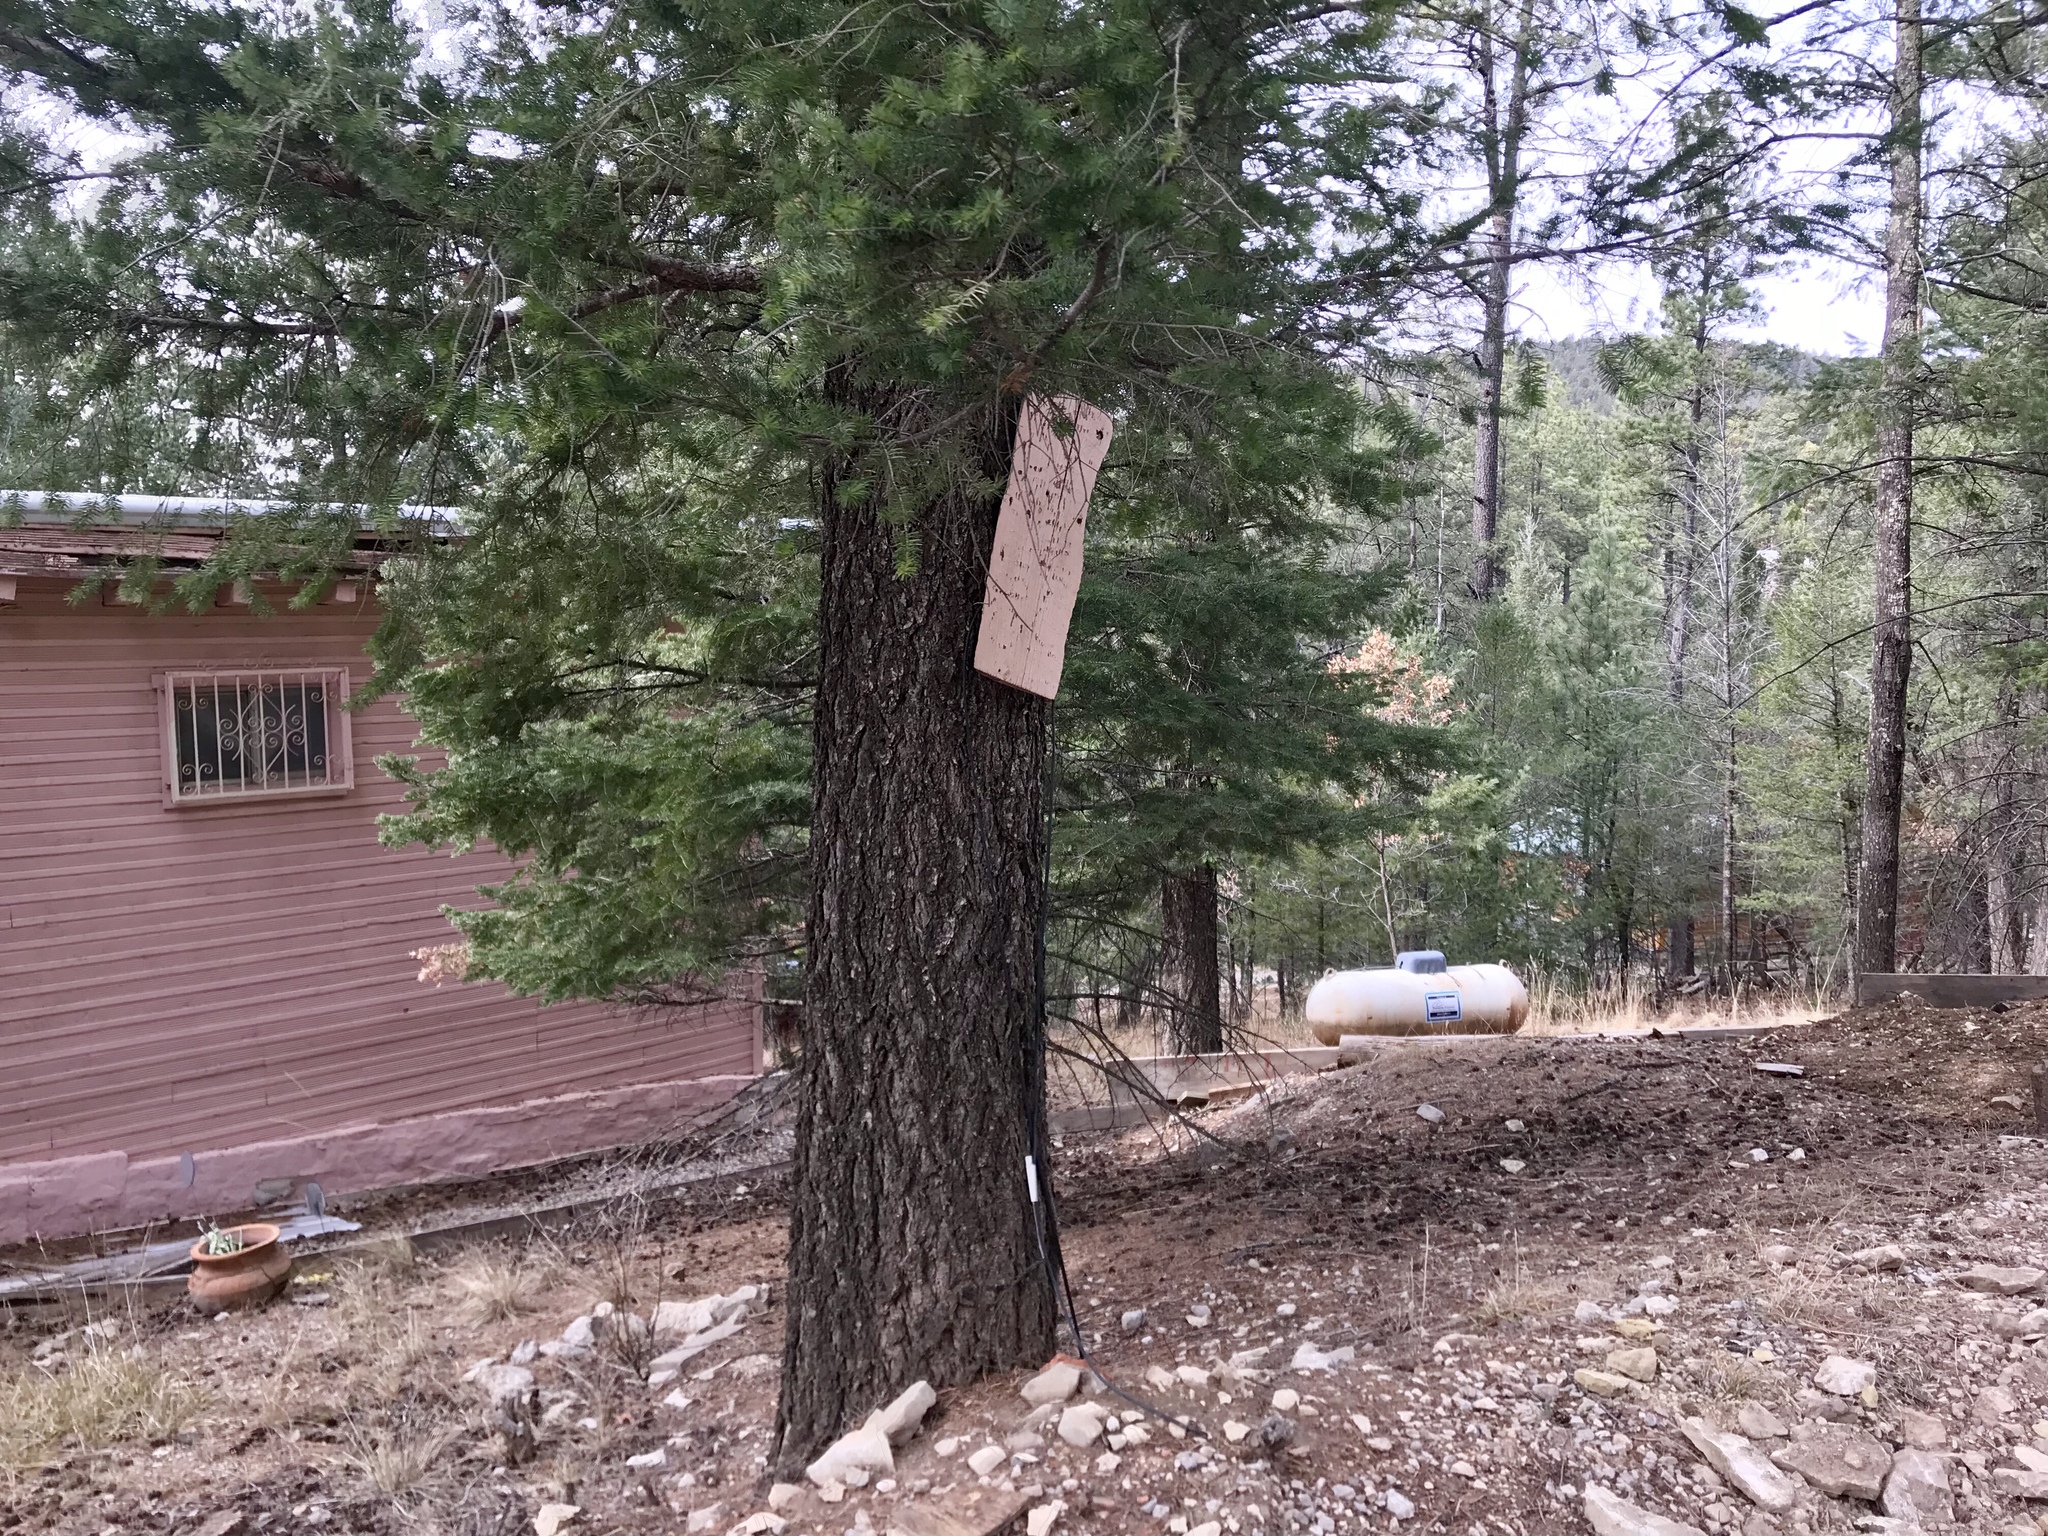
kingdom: Plantae
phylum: Tracheophyta
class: Pinopsida
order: Pinales
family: Pinaceae
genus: Pseudotsuga
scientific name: Pseudotsuga menziesii
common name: Douglas fir
